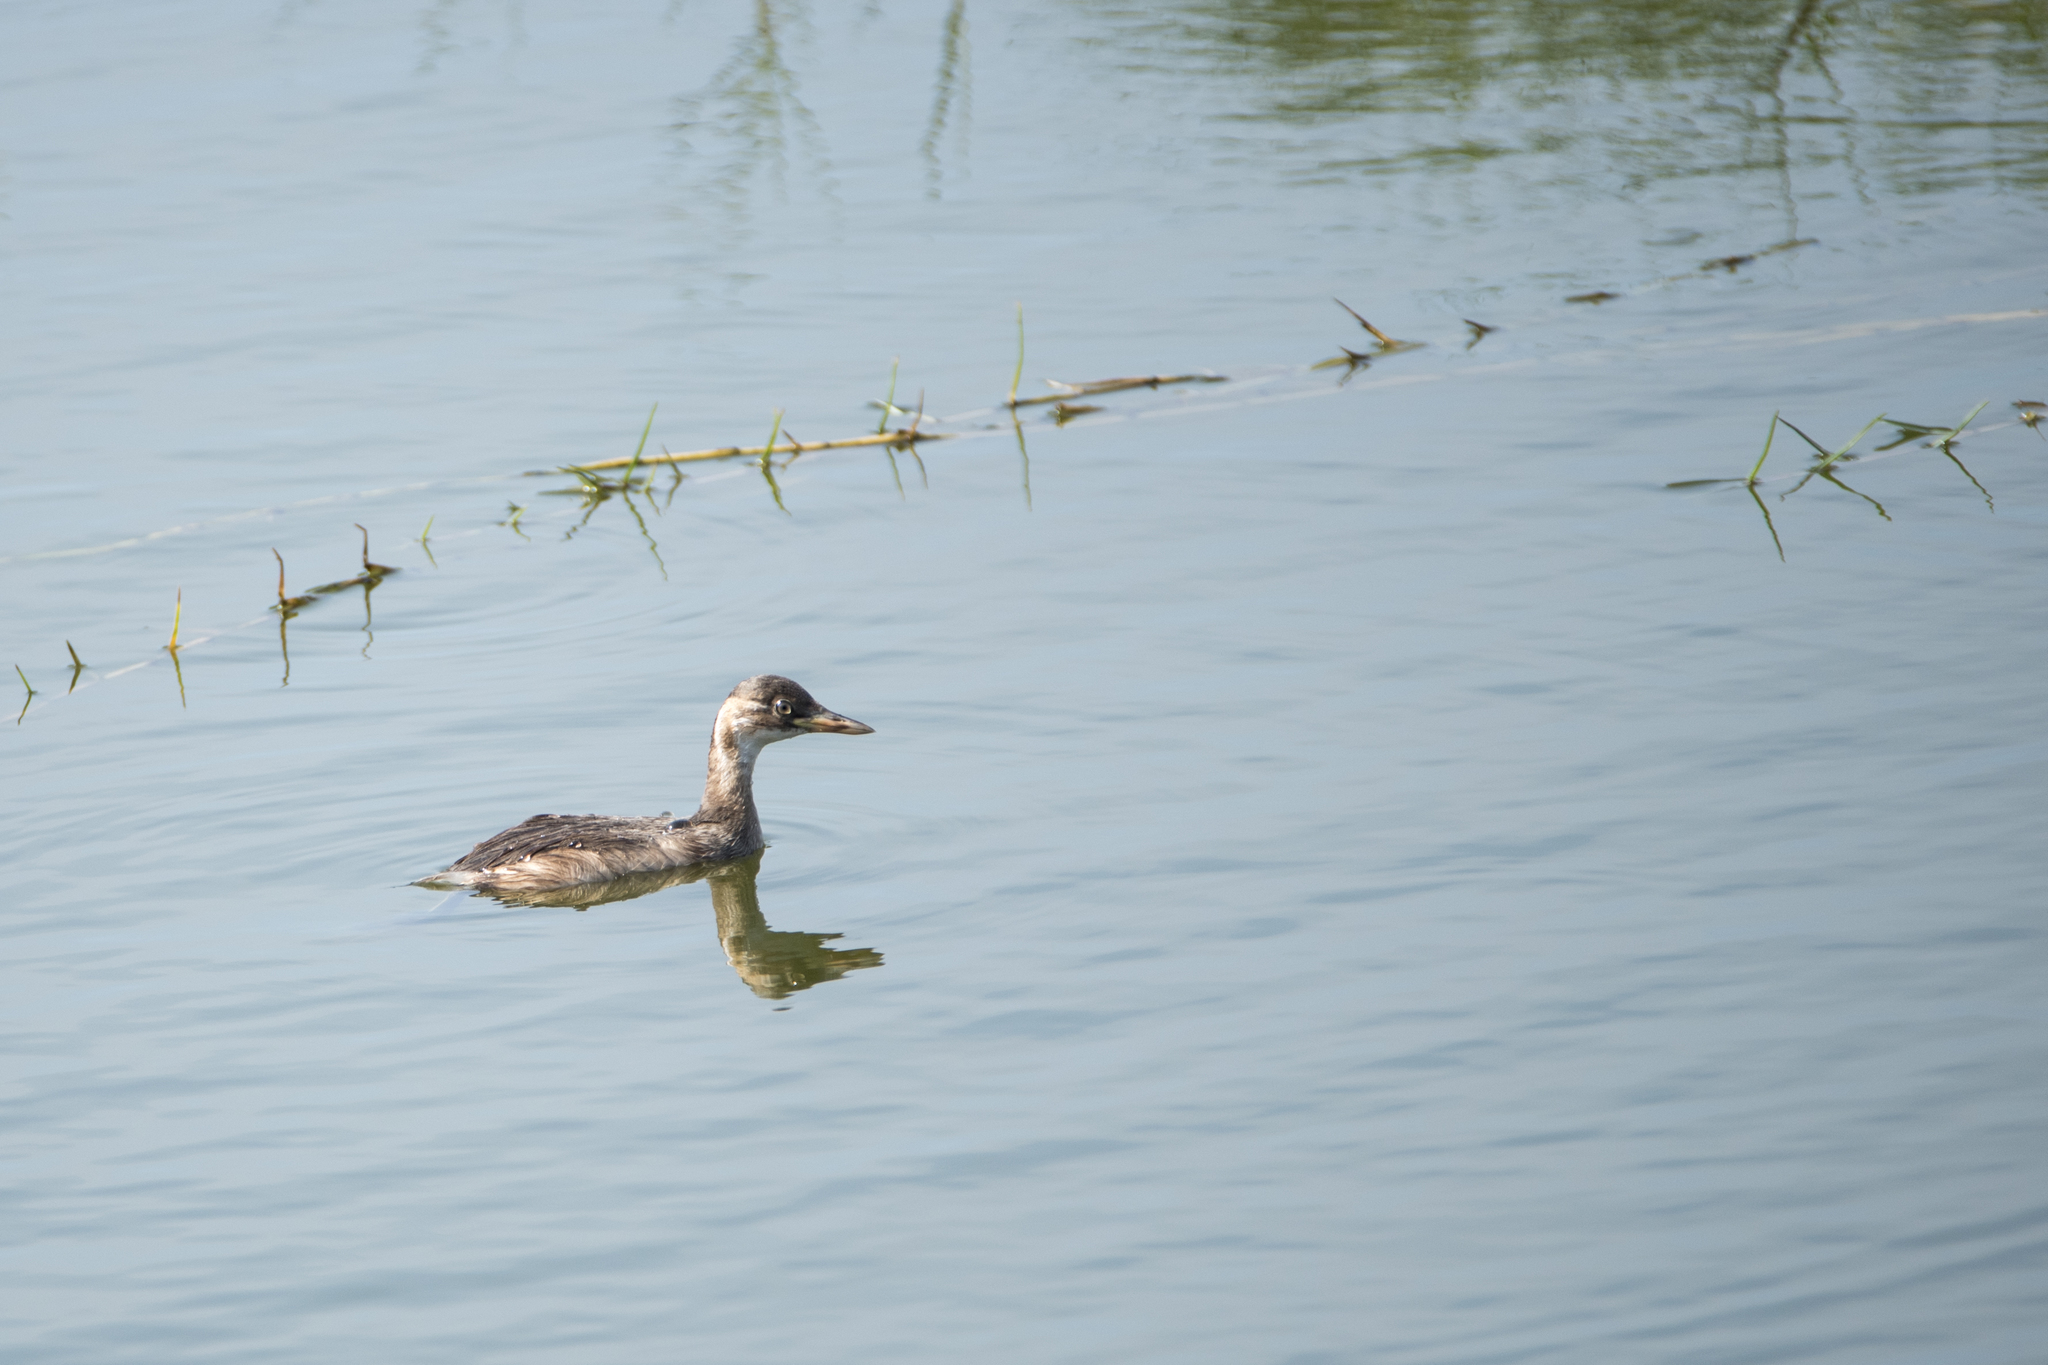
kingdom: Animalia
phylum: Chordata
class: Aves
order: Podicipediformes
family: Podicipedidae
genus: Tachybaptus
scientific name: Tachybaptus ruficollis
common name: Little grebe
